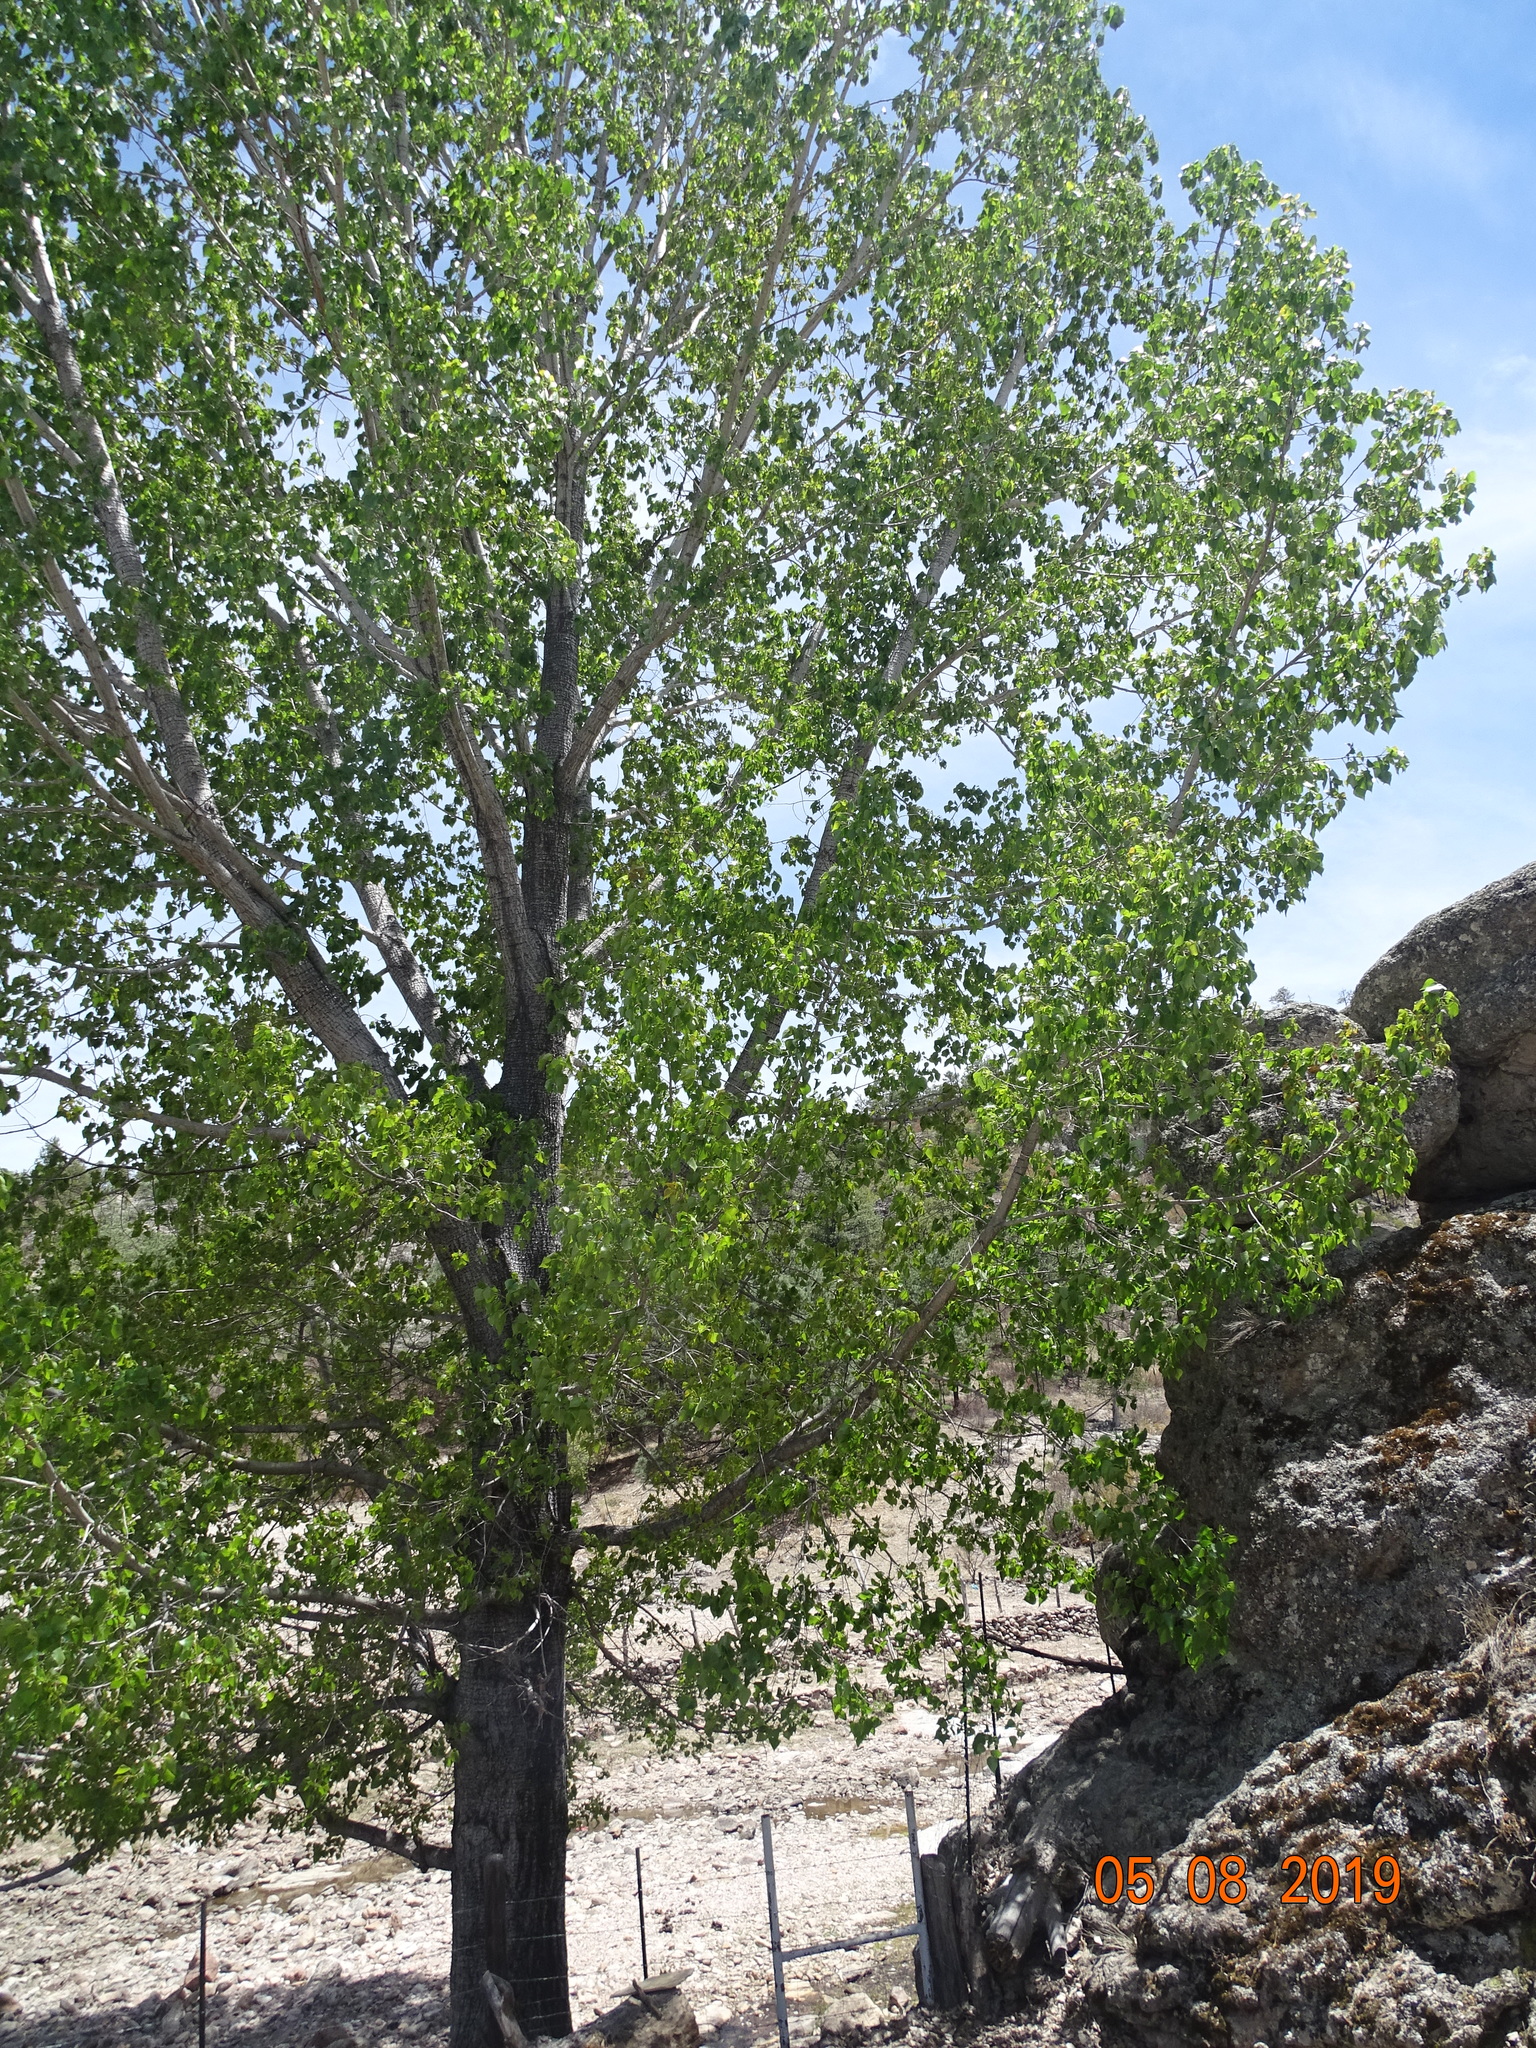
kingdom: Plantae
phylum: Tracheophyta
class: Magnoliopsida
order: Malpighiales
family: Salicaceae
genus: Populus
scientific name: Populus fremontii
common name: Fremont's cottonwood
